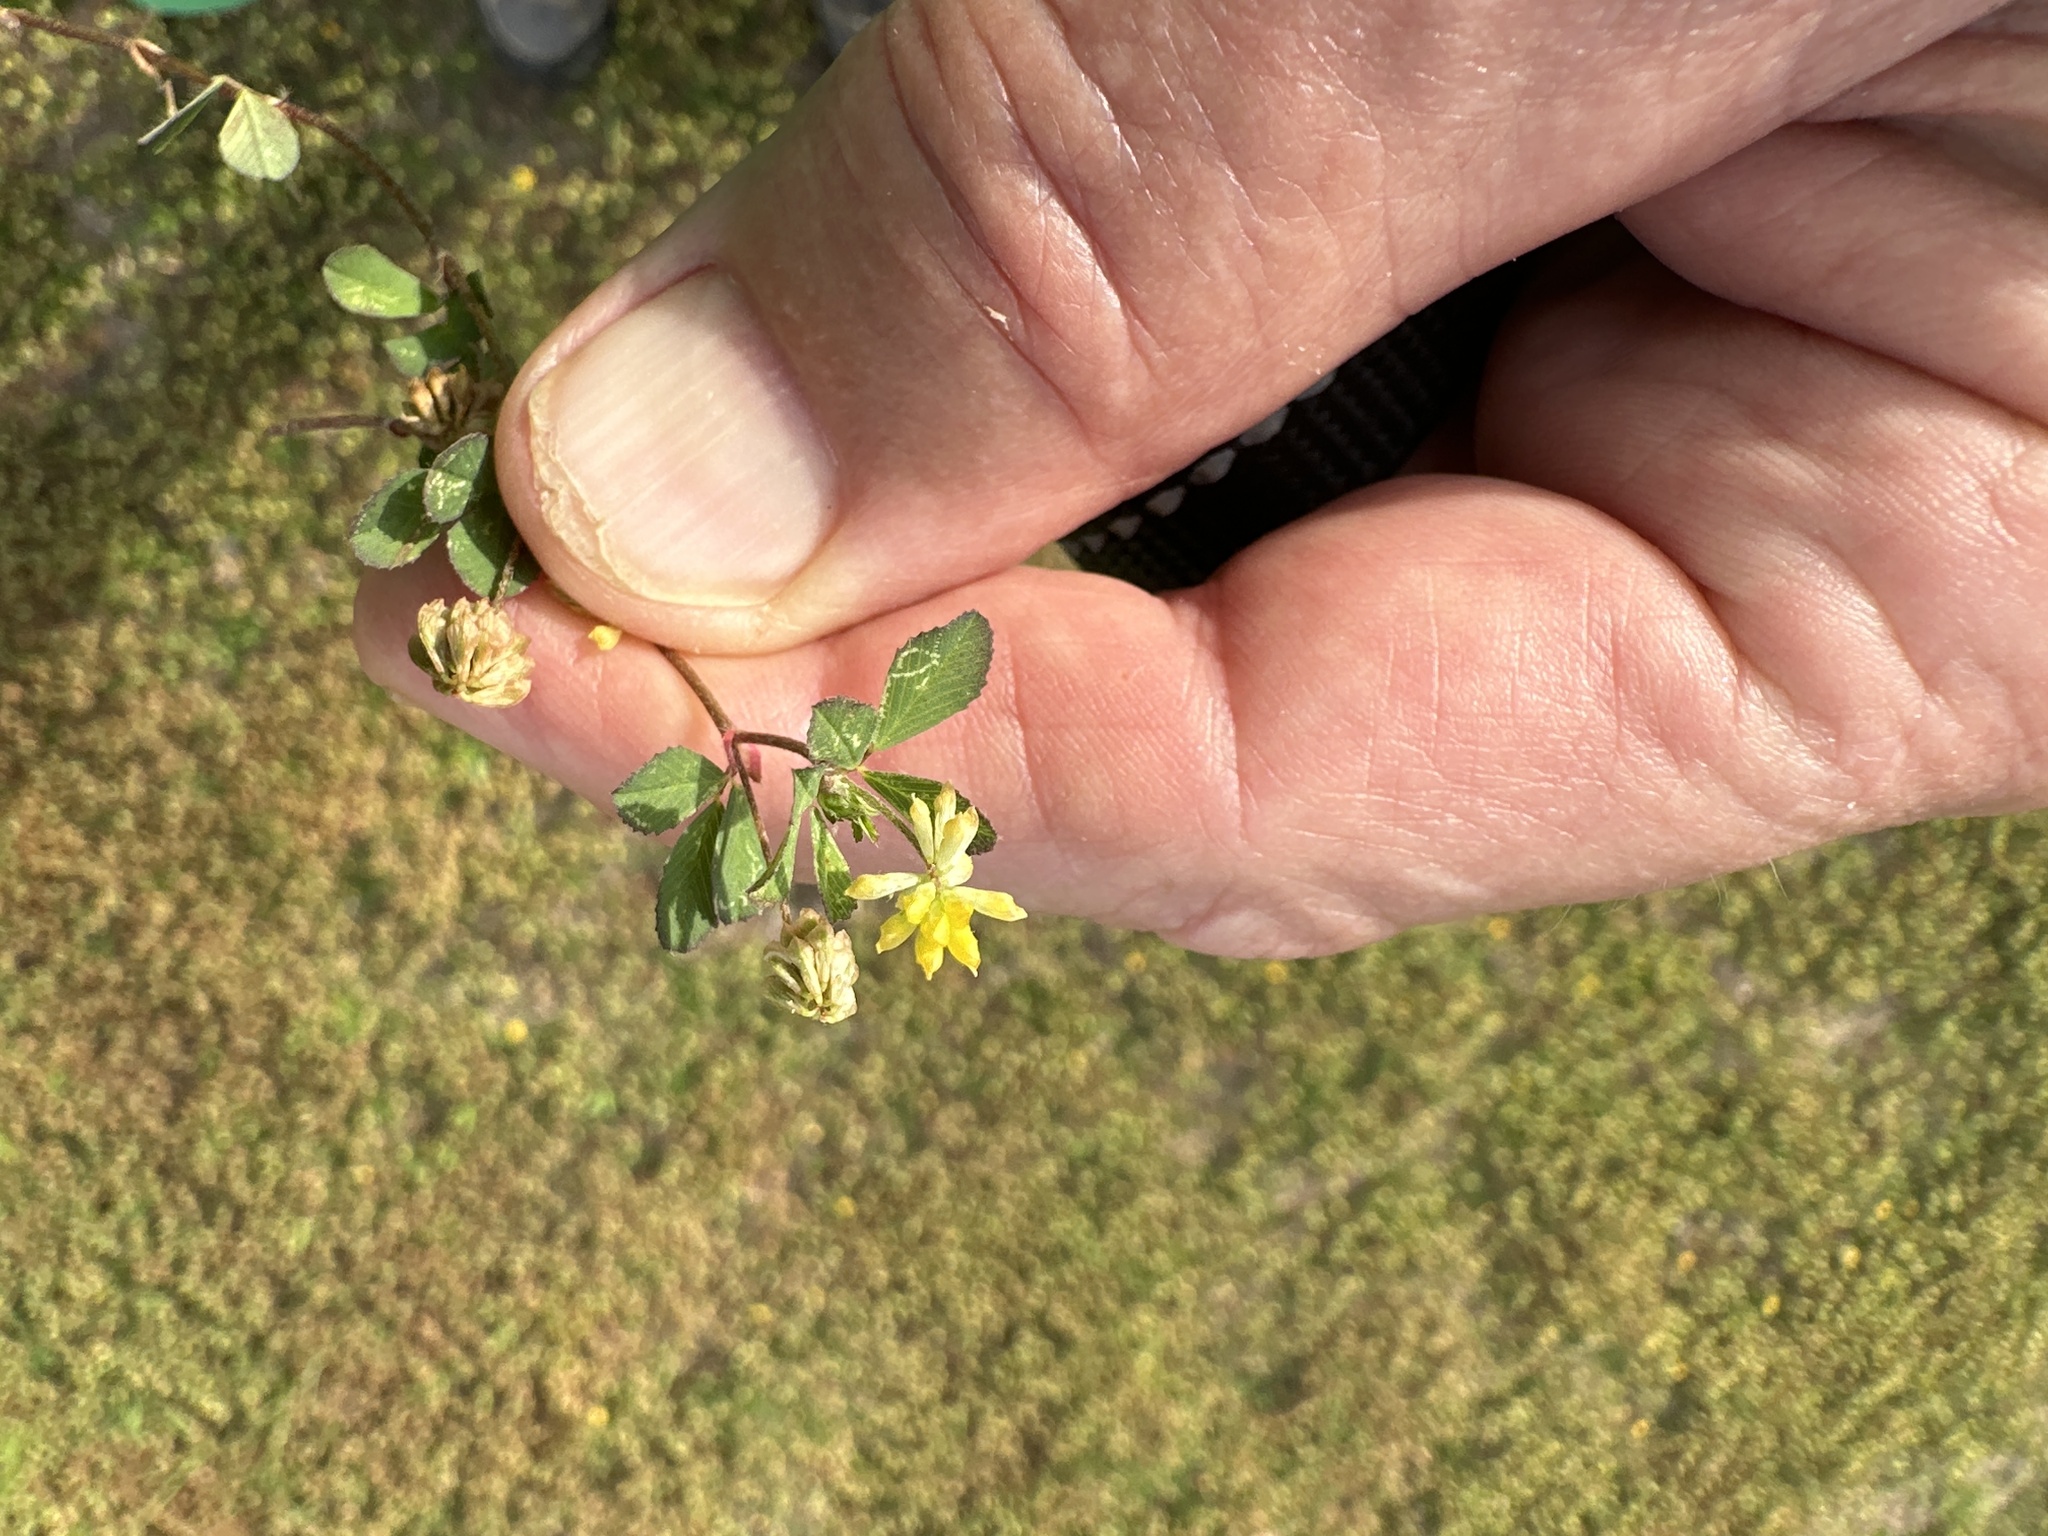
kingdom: Plantae
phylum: Tracheophyta
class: Magnoliopsida
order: Fabales
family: Fabaceae
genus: Trifolium
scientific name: Trifolium dubium
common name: Suckling clover
